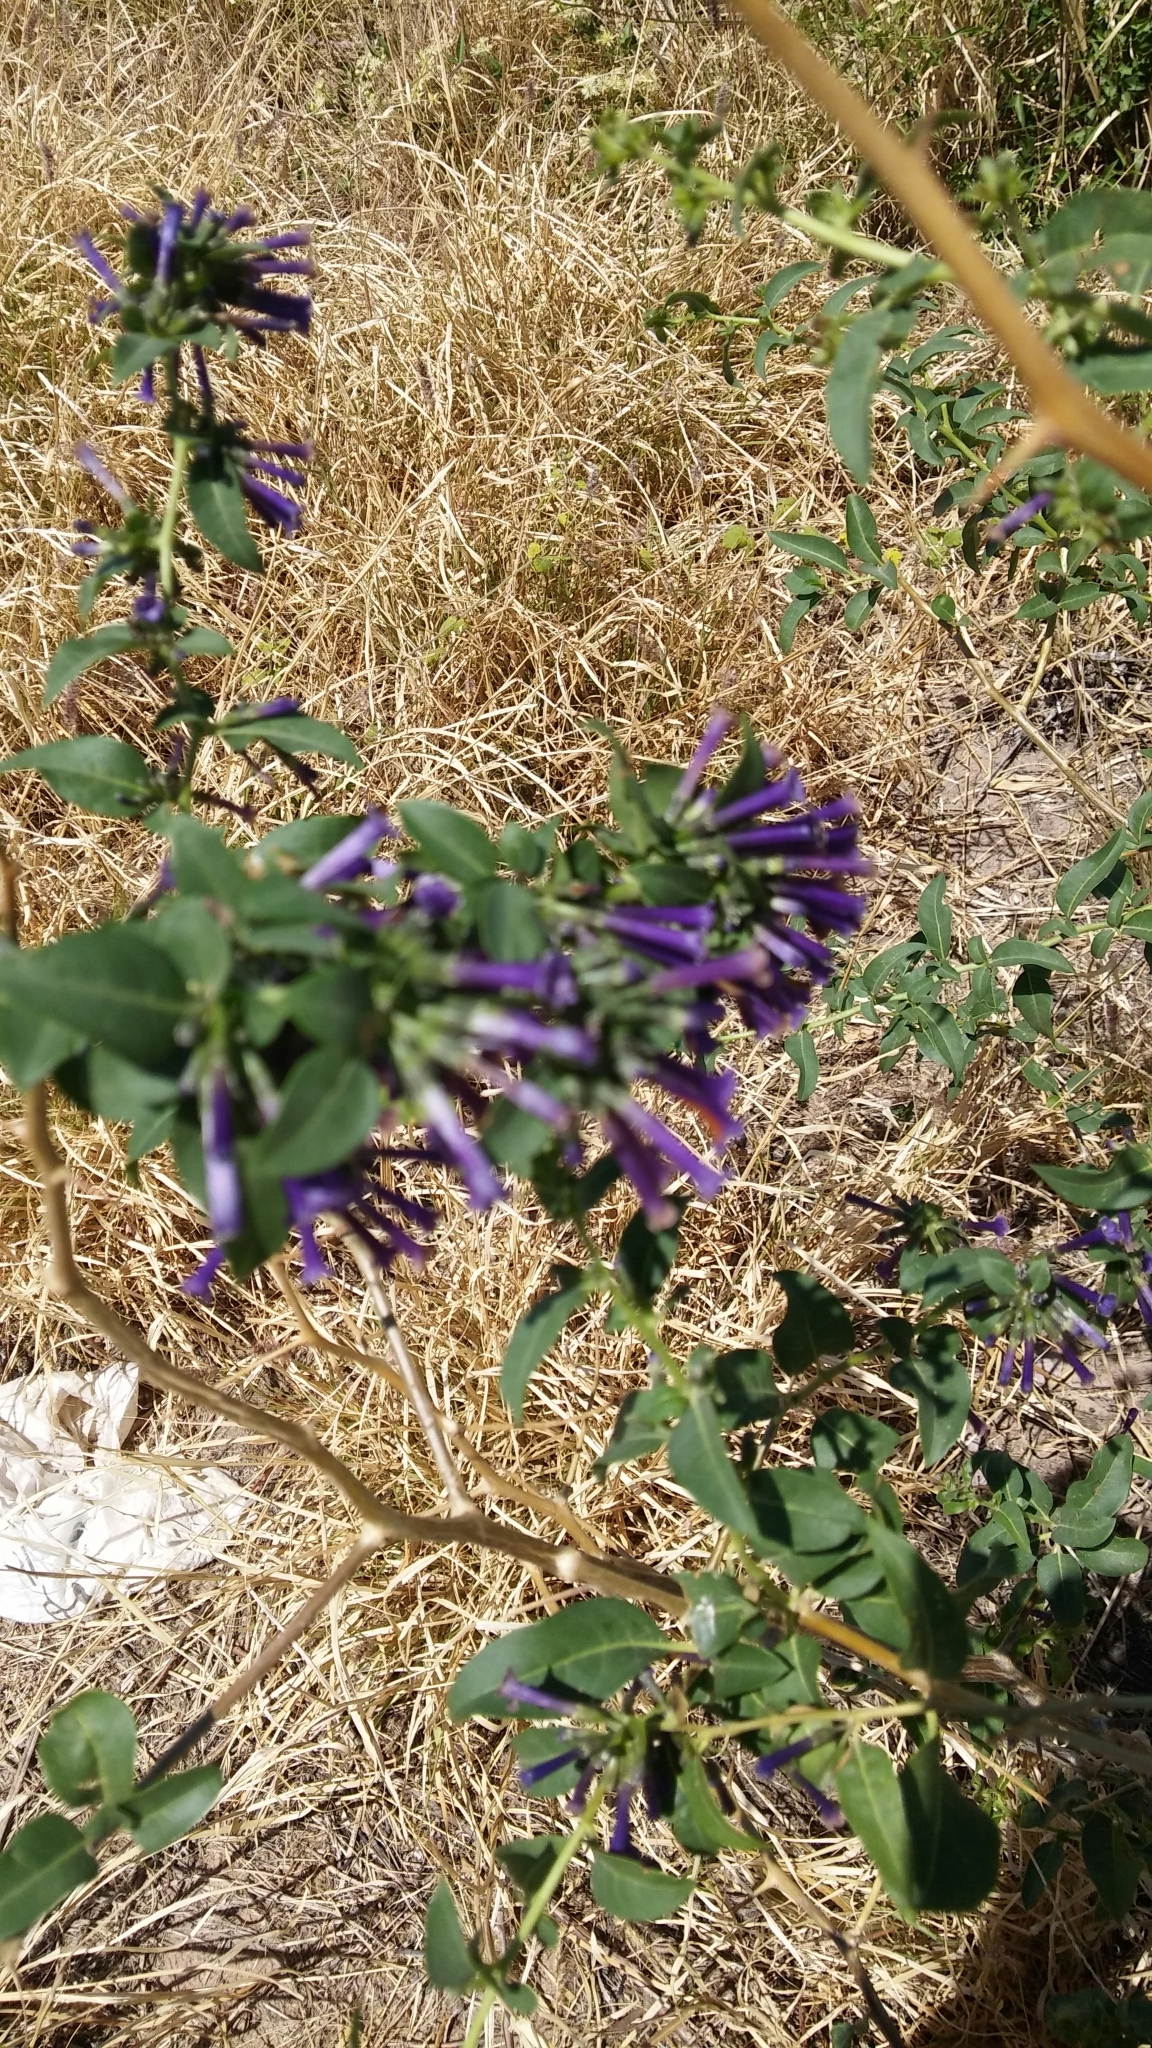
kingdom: Plantae
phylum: Tracheophyta
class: Magnoliopsida
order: Solanales
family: Solanaceae
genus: Lycium
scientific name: Lycium cestroides
